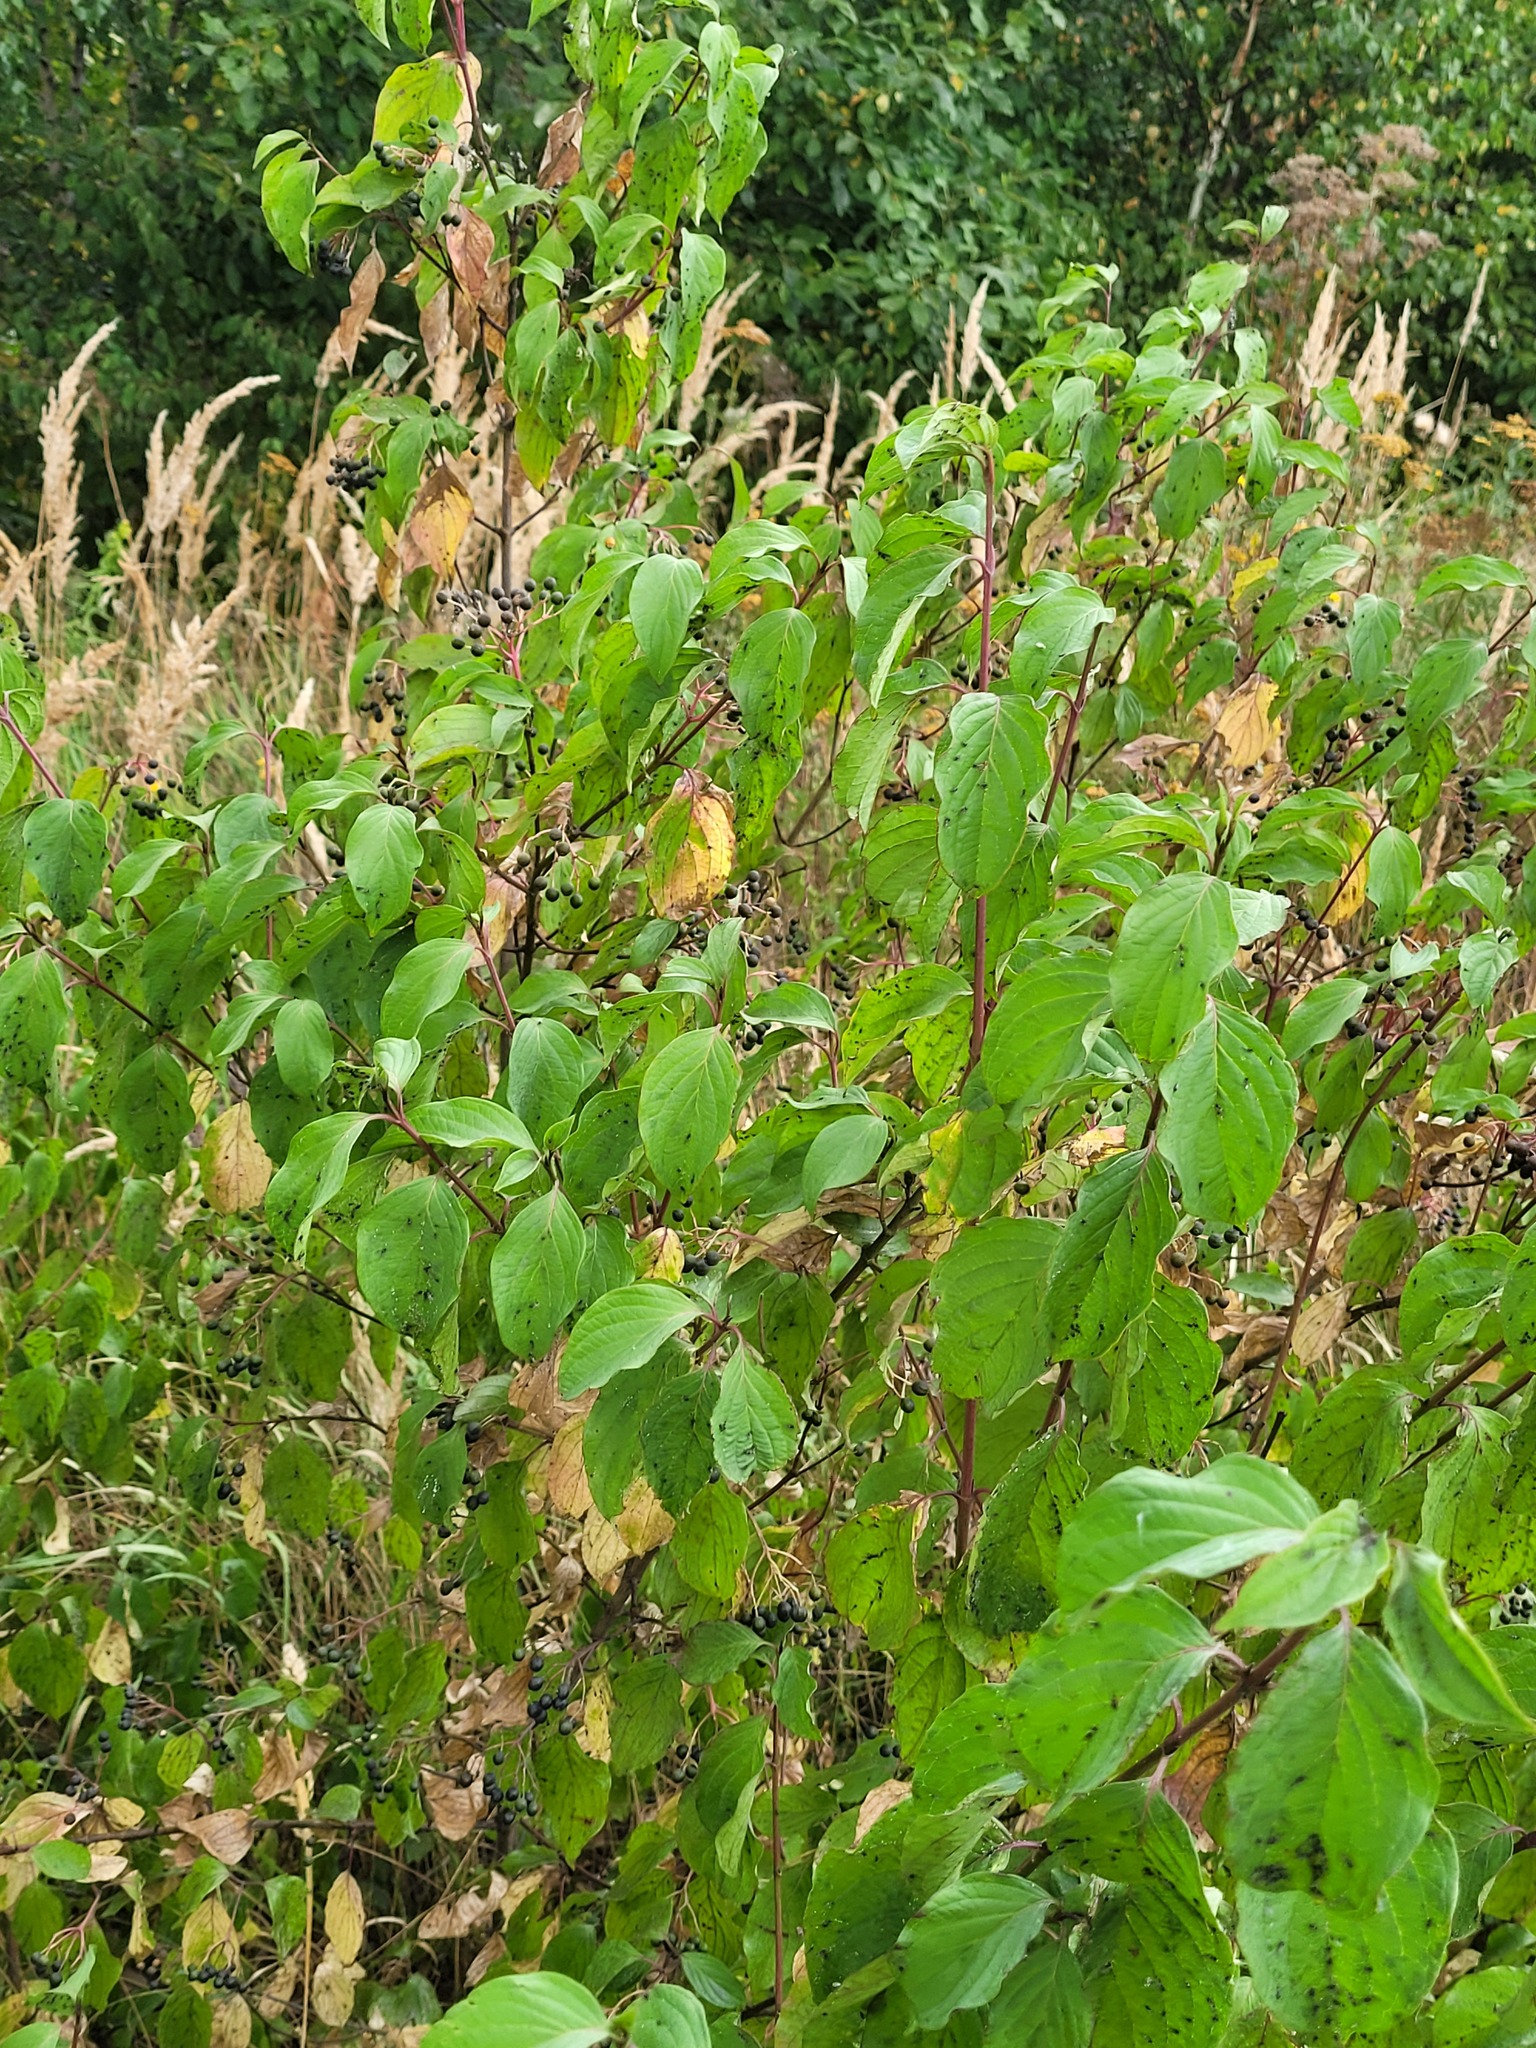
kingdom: Plantae
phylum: Tracheophyta
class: Magnoliopsida
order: Cornales
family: Cornaceae
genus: Cornus
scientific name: Cornus sanguinea
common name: Dogwood
